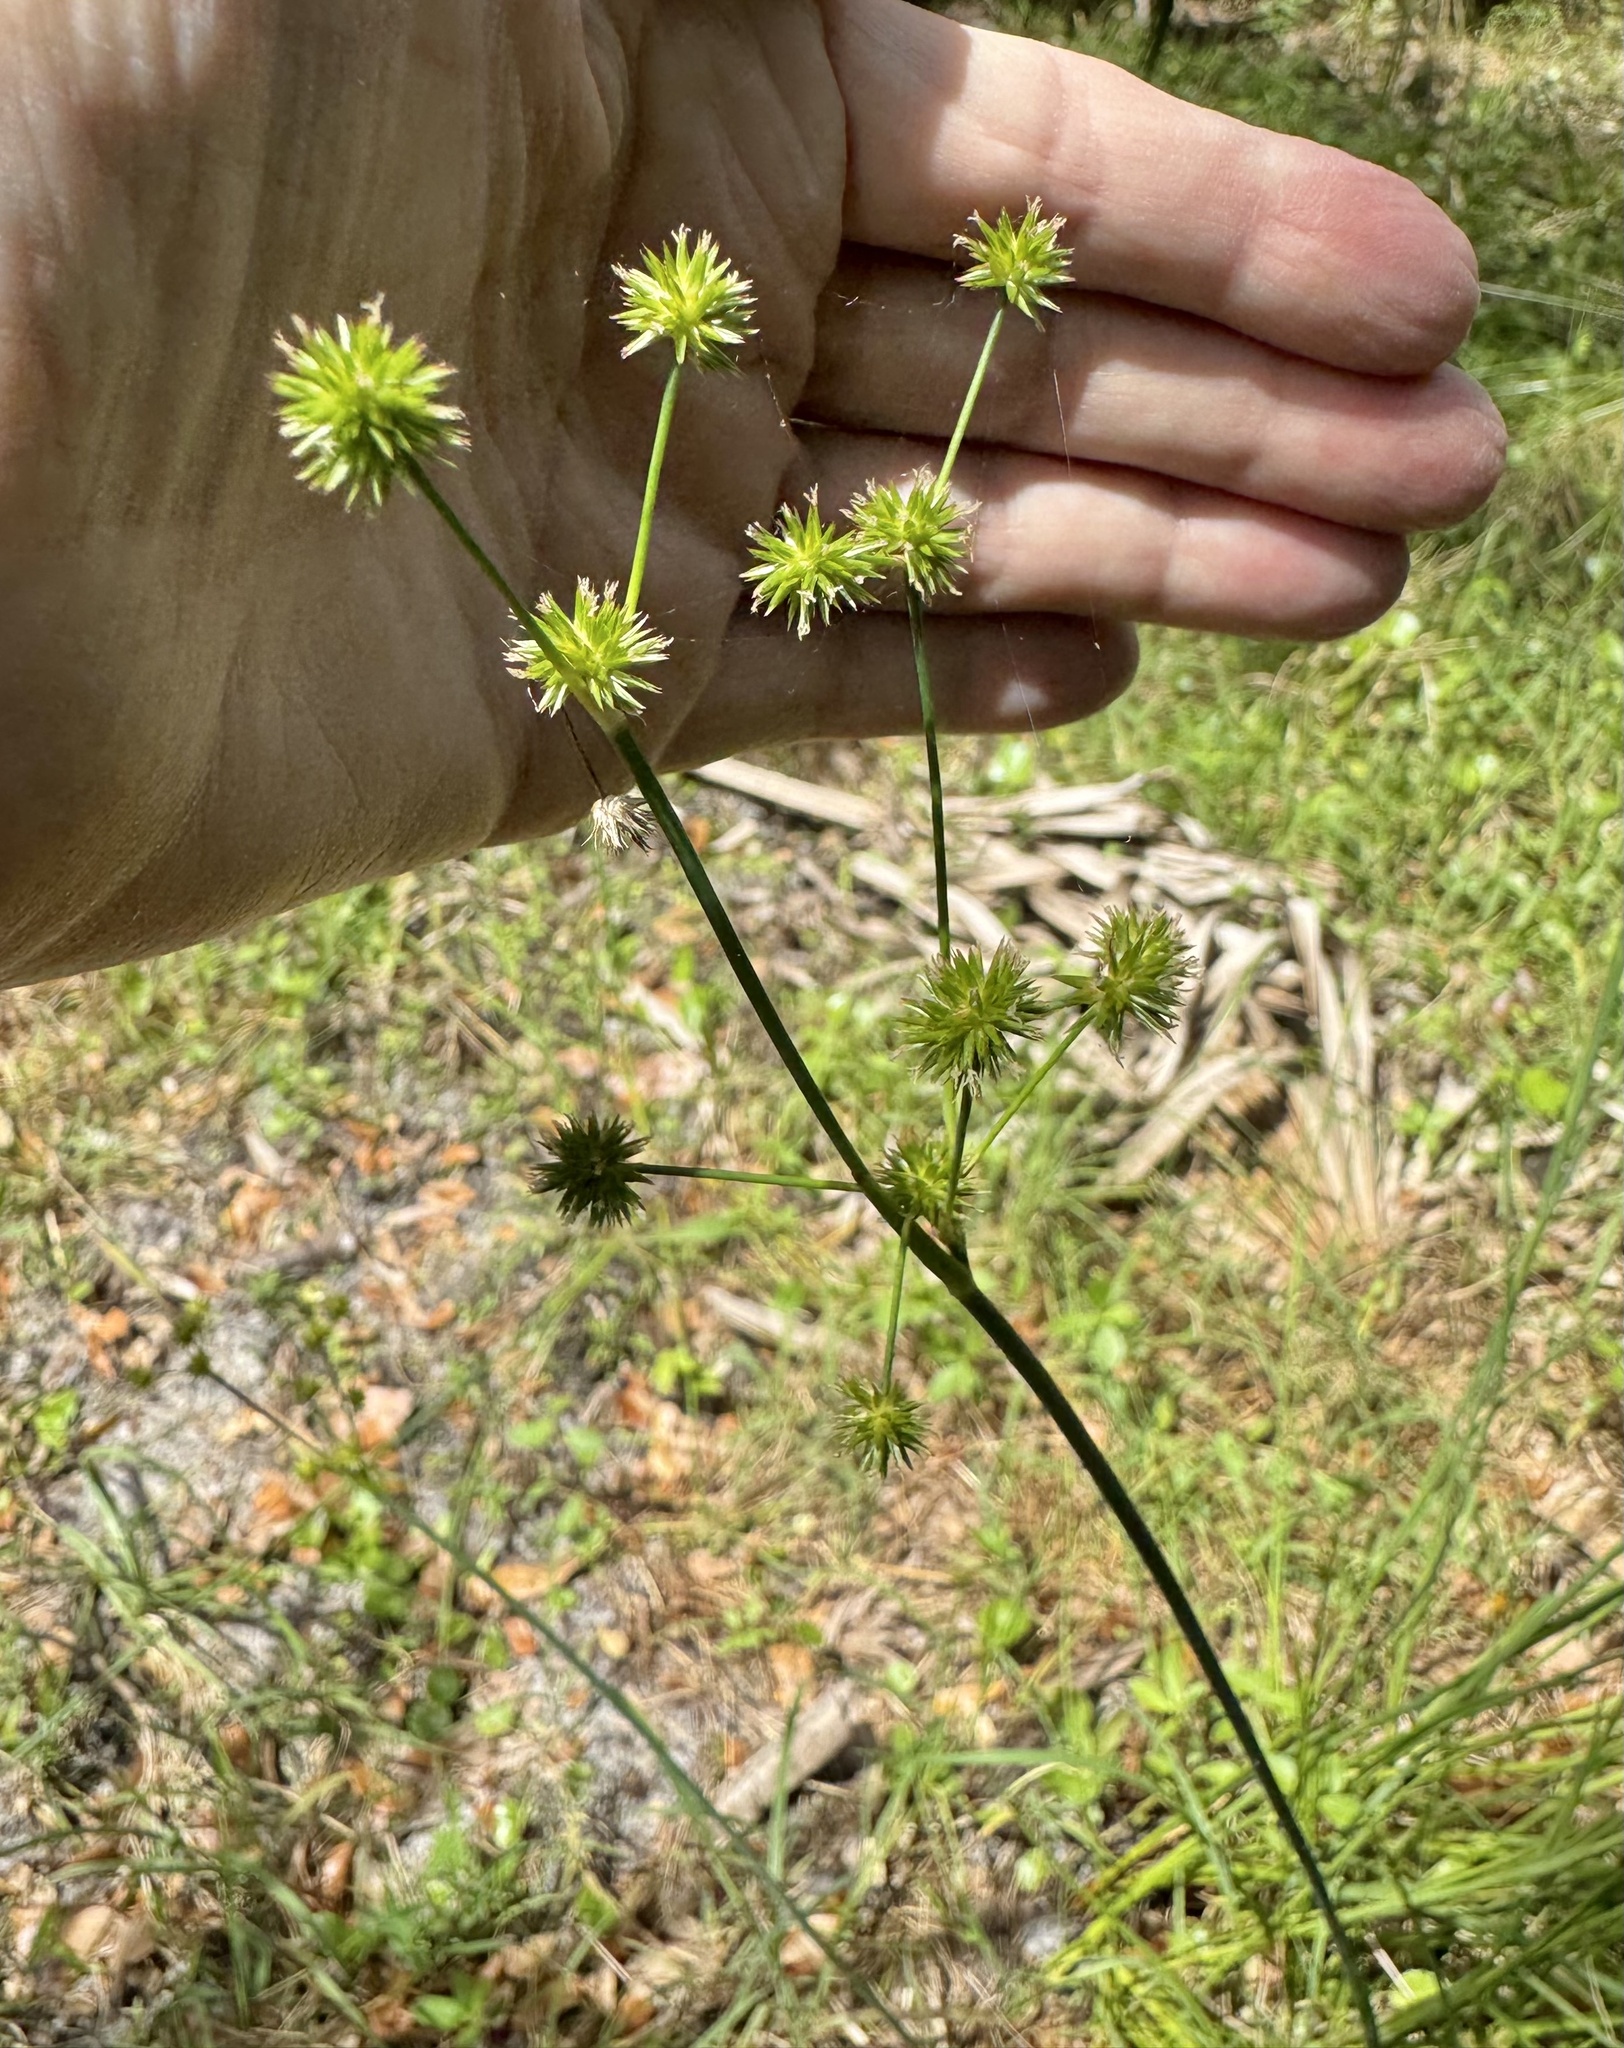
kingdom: Plantae
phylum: Tracheophyta
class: Liliopsida
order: Poales
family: Juncaceae
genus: Juncus
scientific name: Juncus megacephalus
